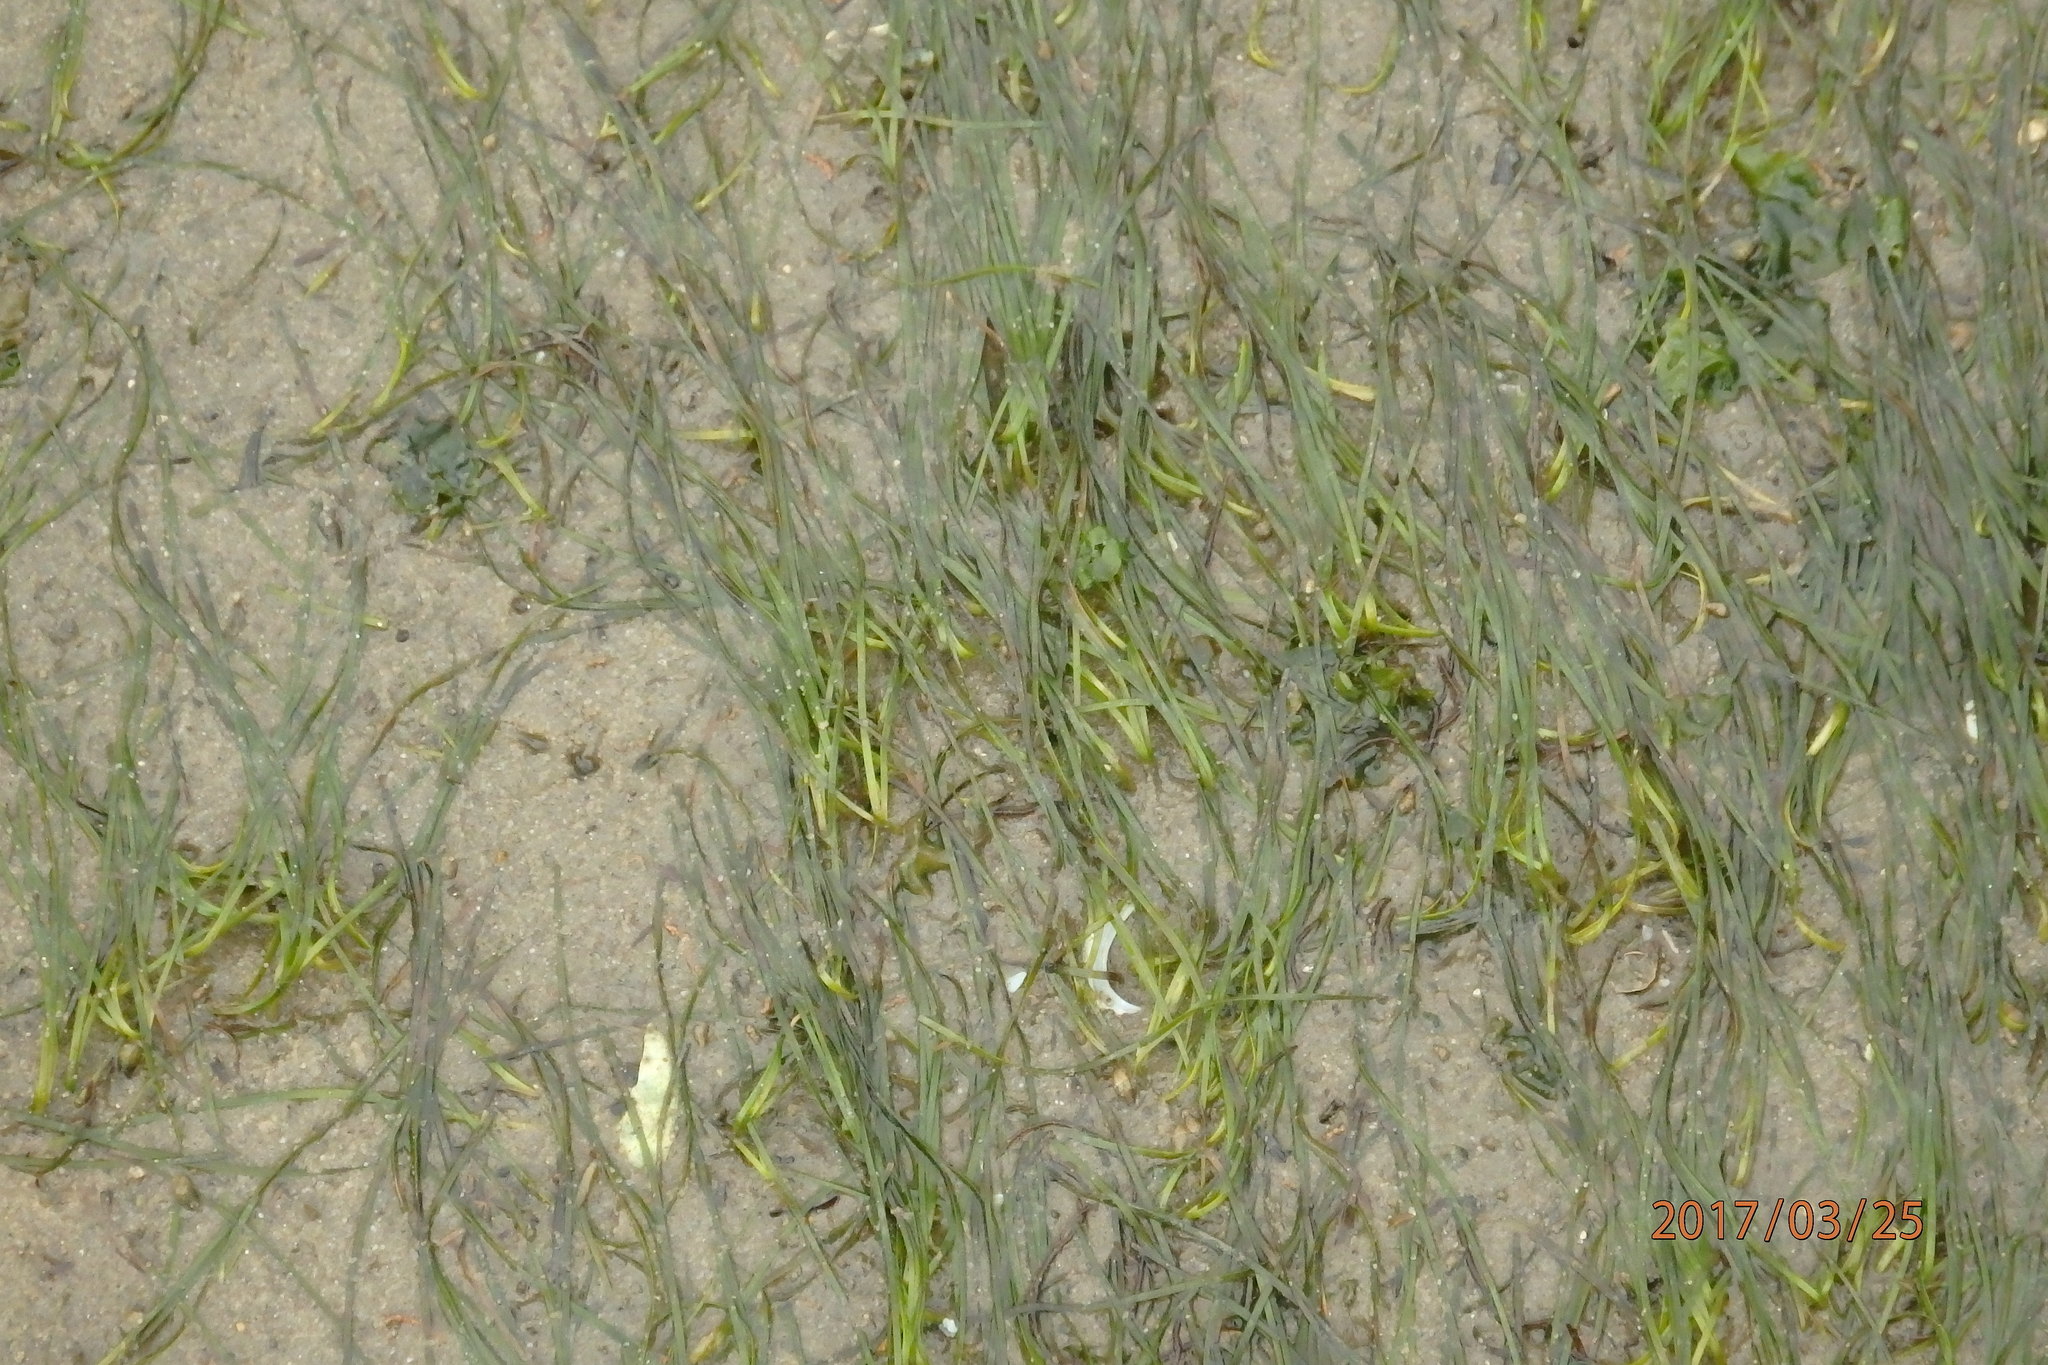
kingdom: Plantae
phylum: Tracheophyta
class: Liliopsida
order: Alismatales
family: Zosteraceae
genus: Zostera
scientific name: Zostera noltii
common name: Dwarf eelgrass
